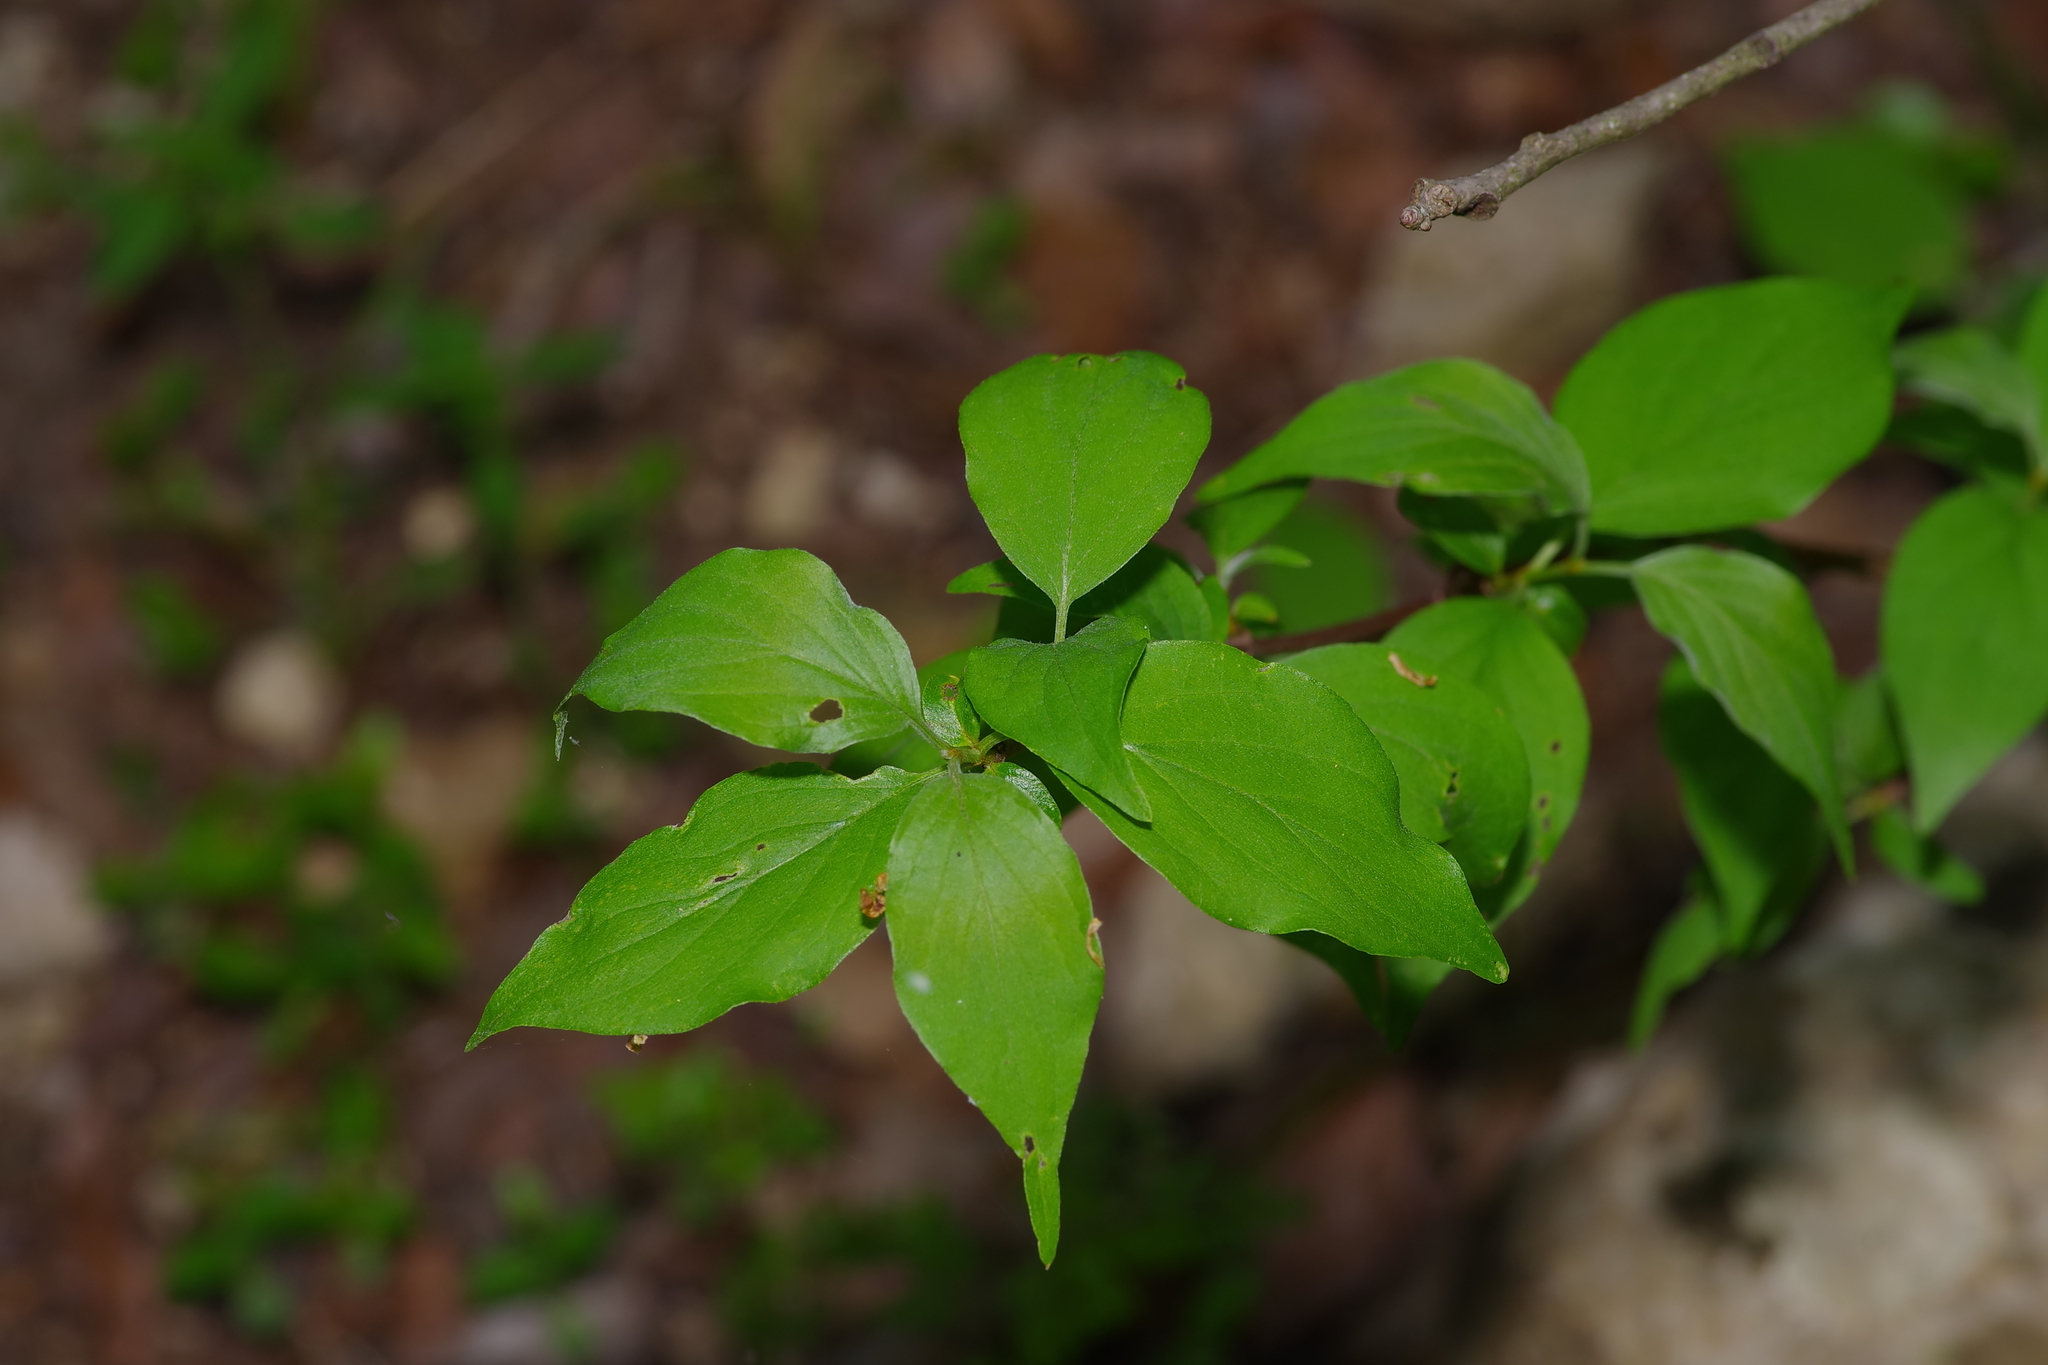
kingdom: Plantae
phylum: Tracheophyta
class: Magnoliopsida
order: Cornales
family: Cornaceae
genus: Cornus
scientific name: Cornus drummondii
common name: Rough-leaf dogwood
